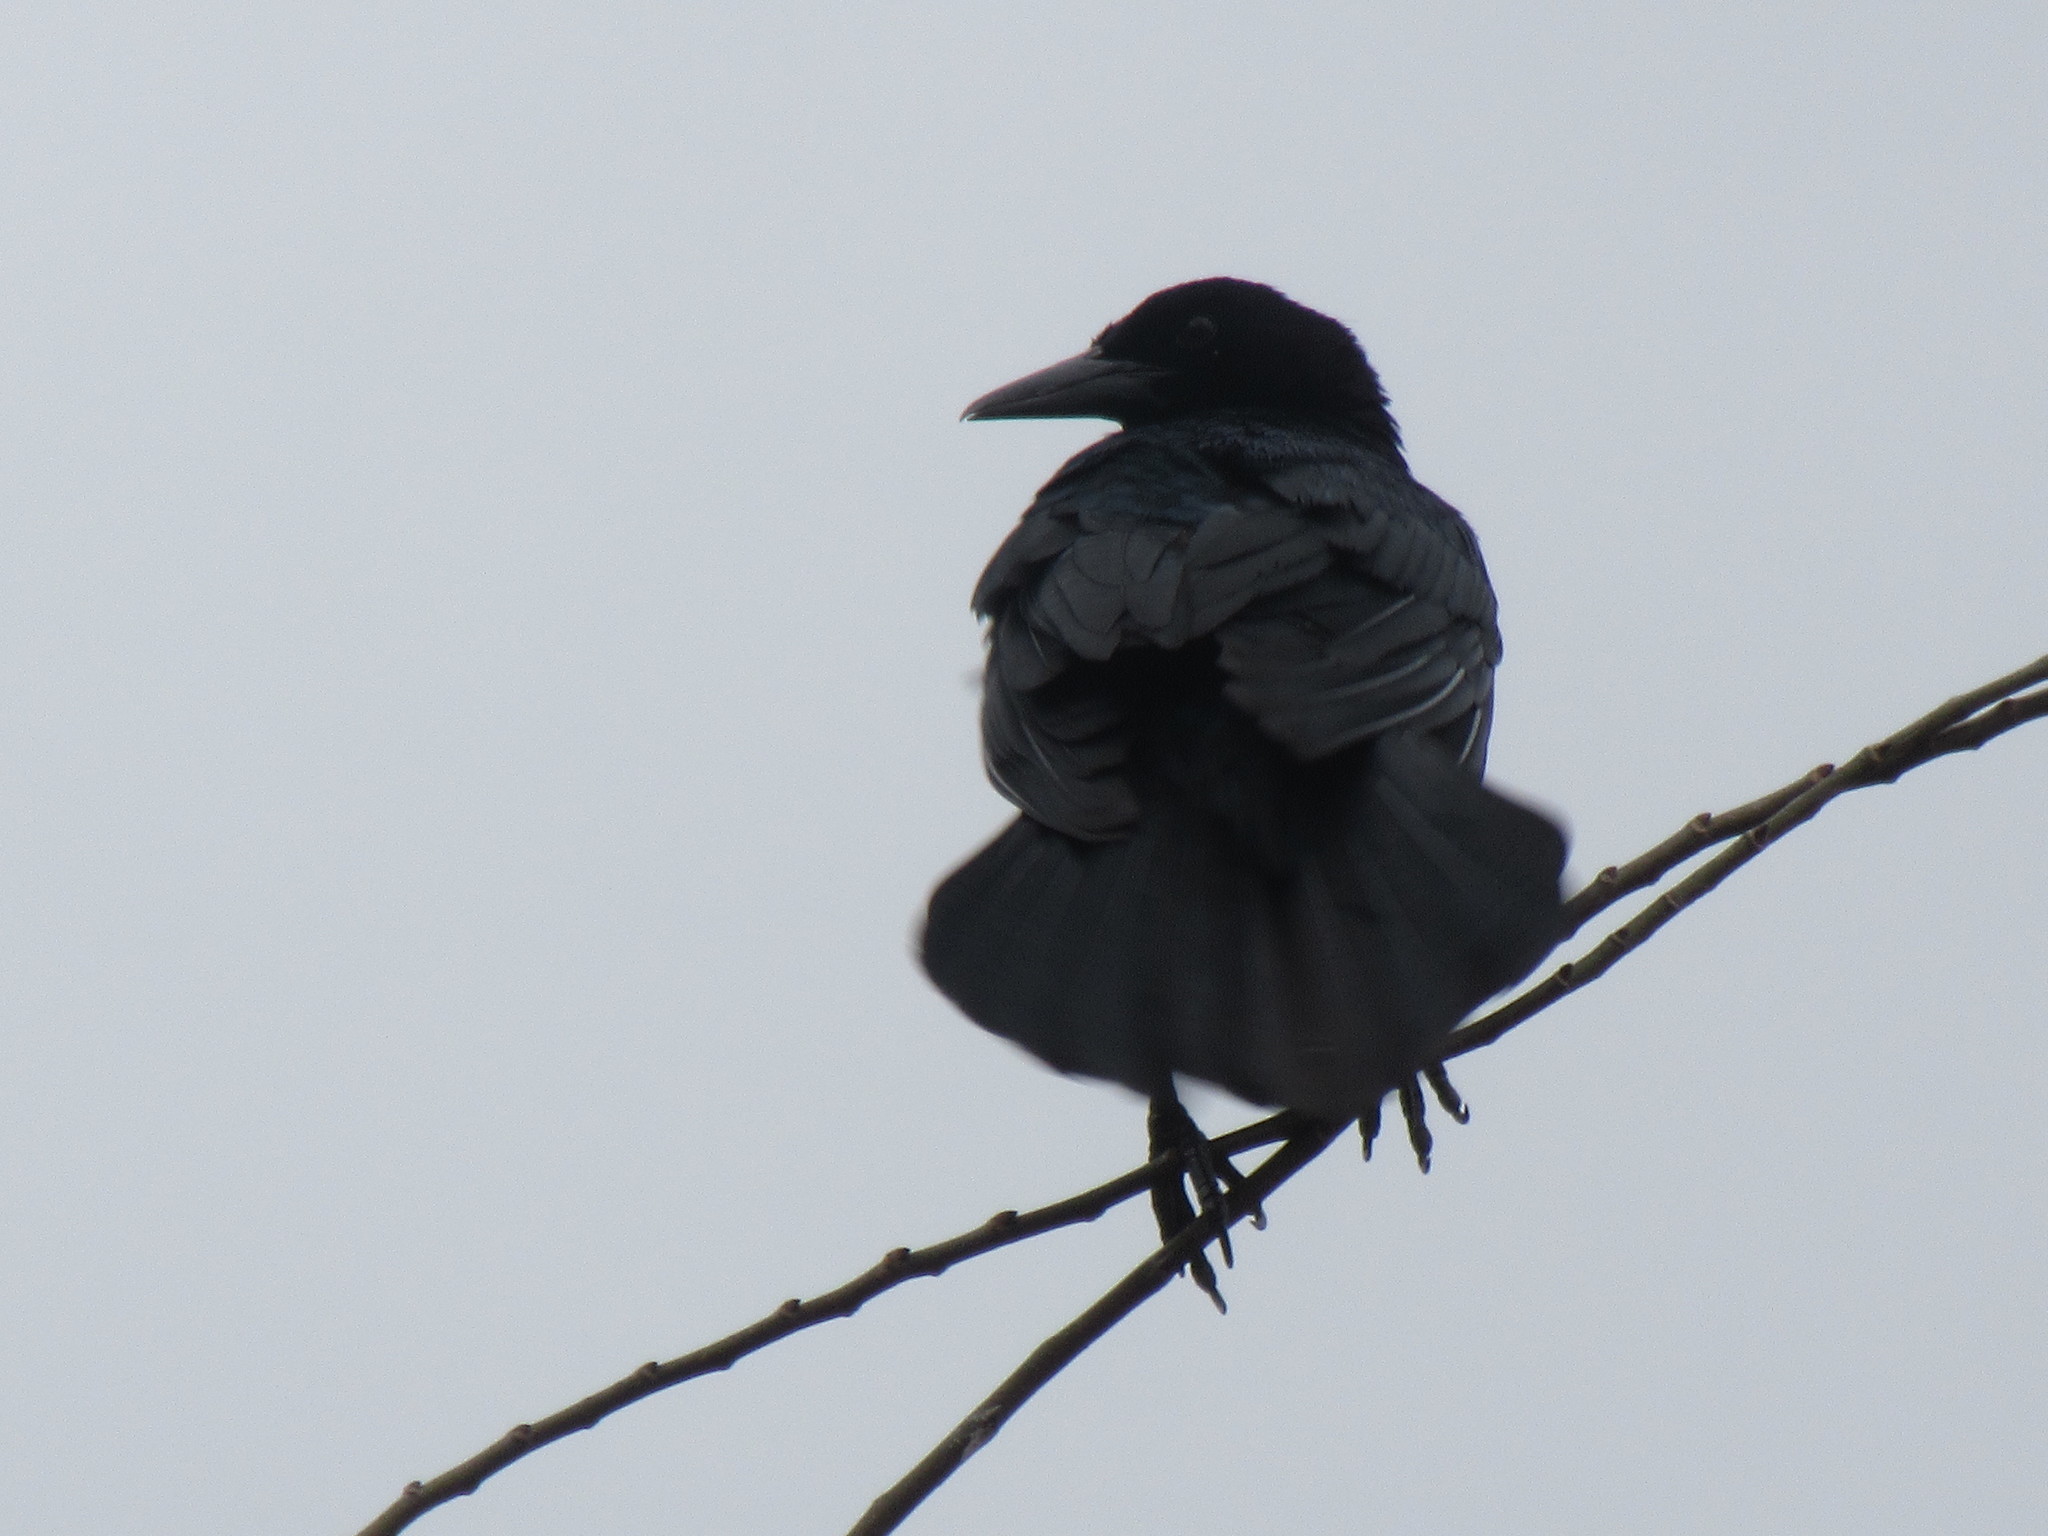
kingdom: Animalia
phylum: Chordata
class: Aves
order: Passeriformes
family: Icteridae
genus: Quiscalus
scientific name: Quiscalus major
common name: Boat-tailed grackle
